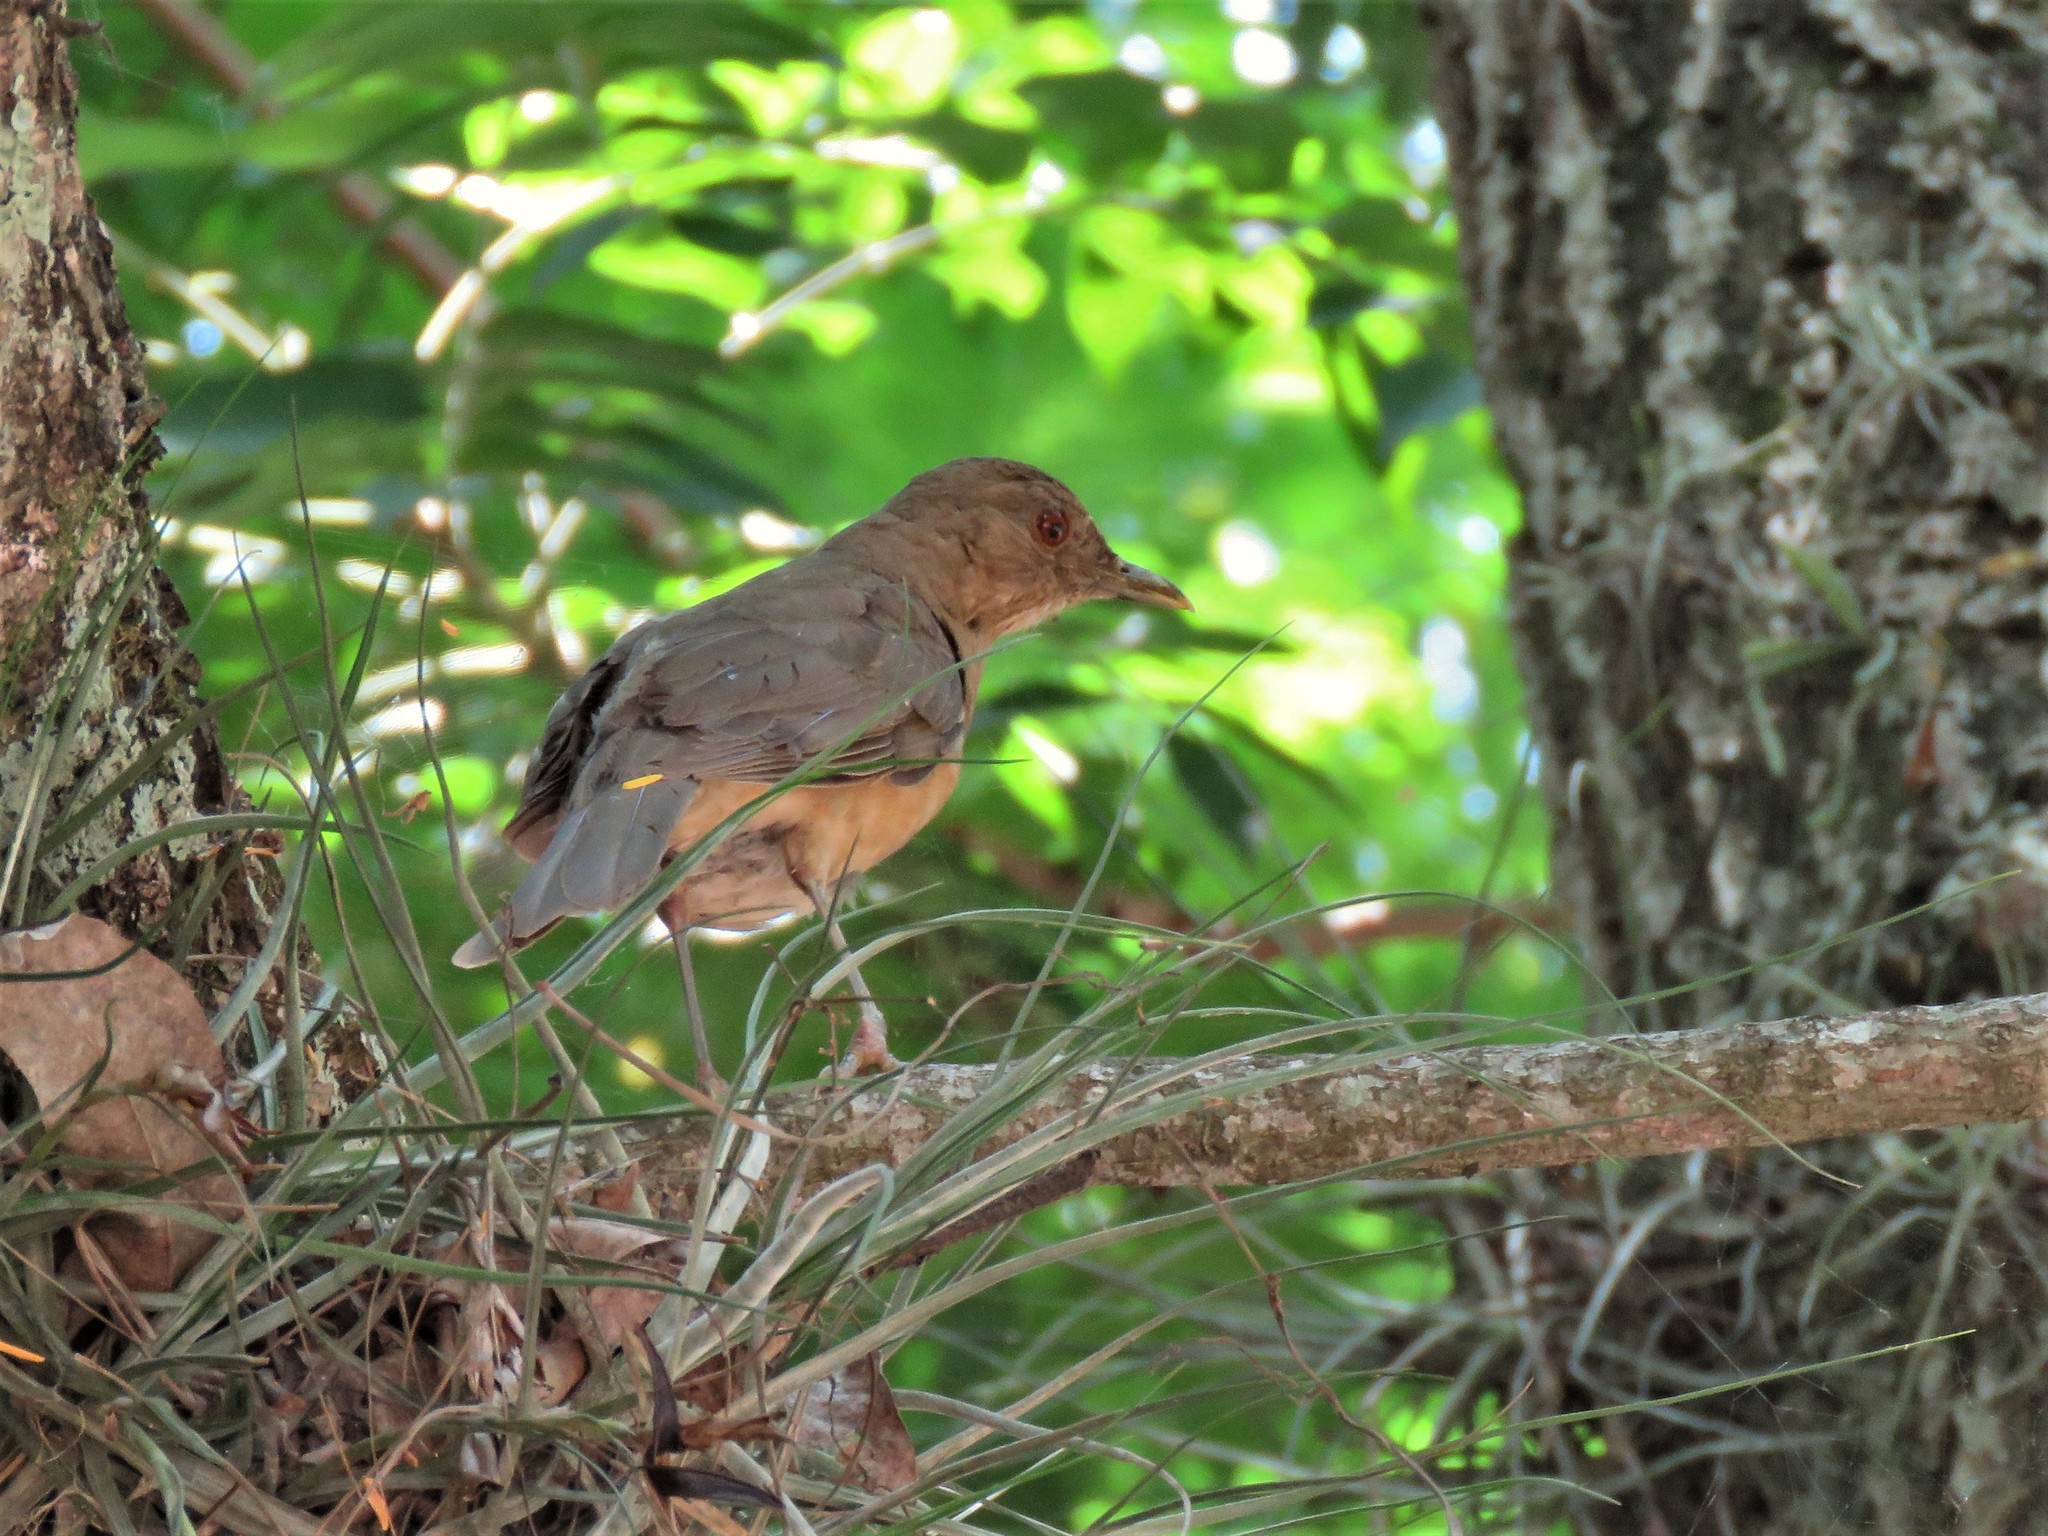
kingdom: Animalia
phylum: Chordata
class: Aves
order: Passeriformes
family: Turdidae
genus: Turdus
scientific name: Turdus grayi
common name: Clay-colored thrush
